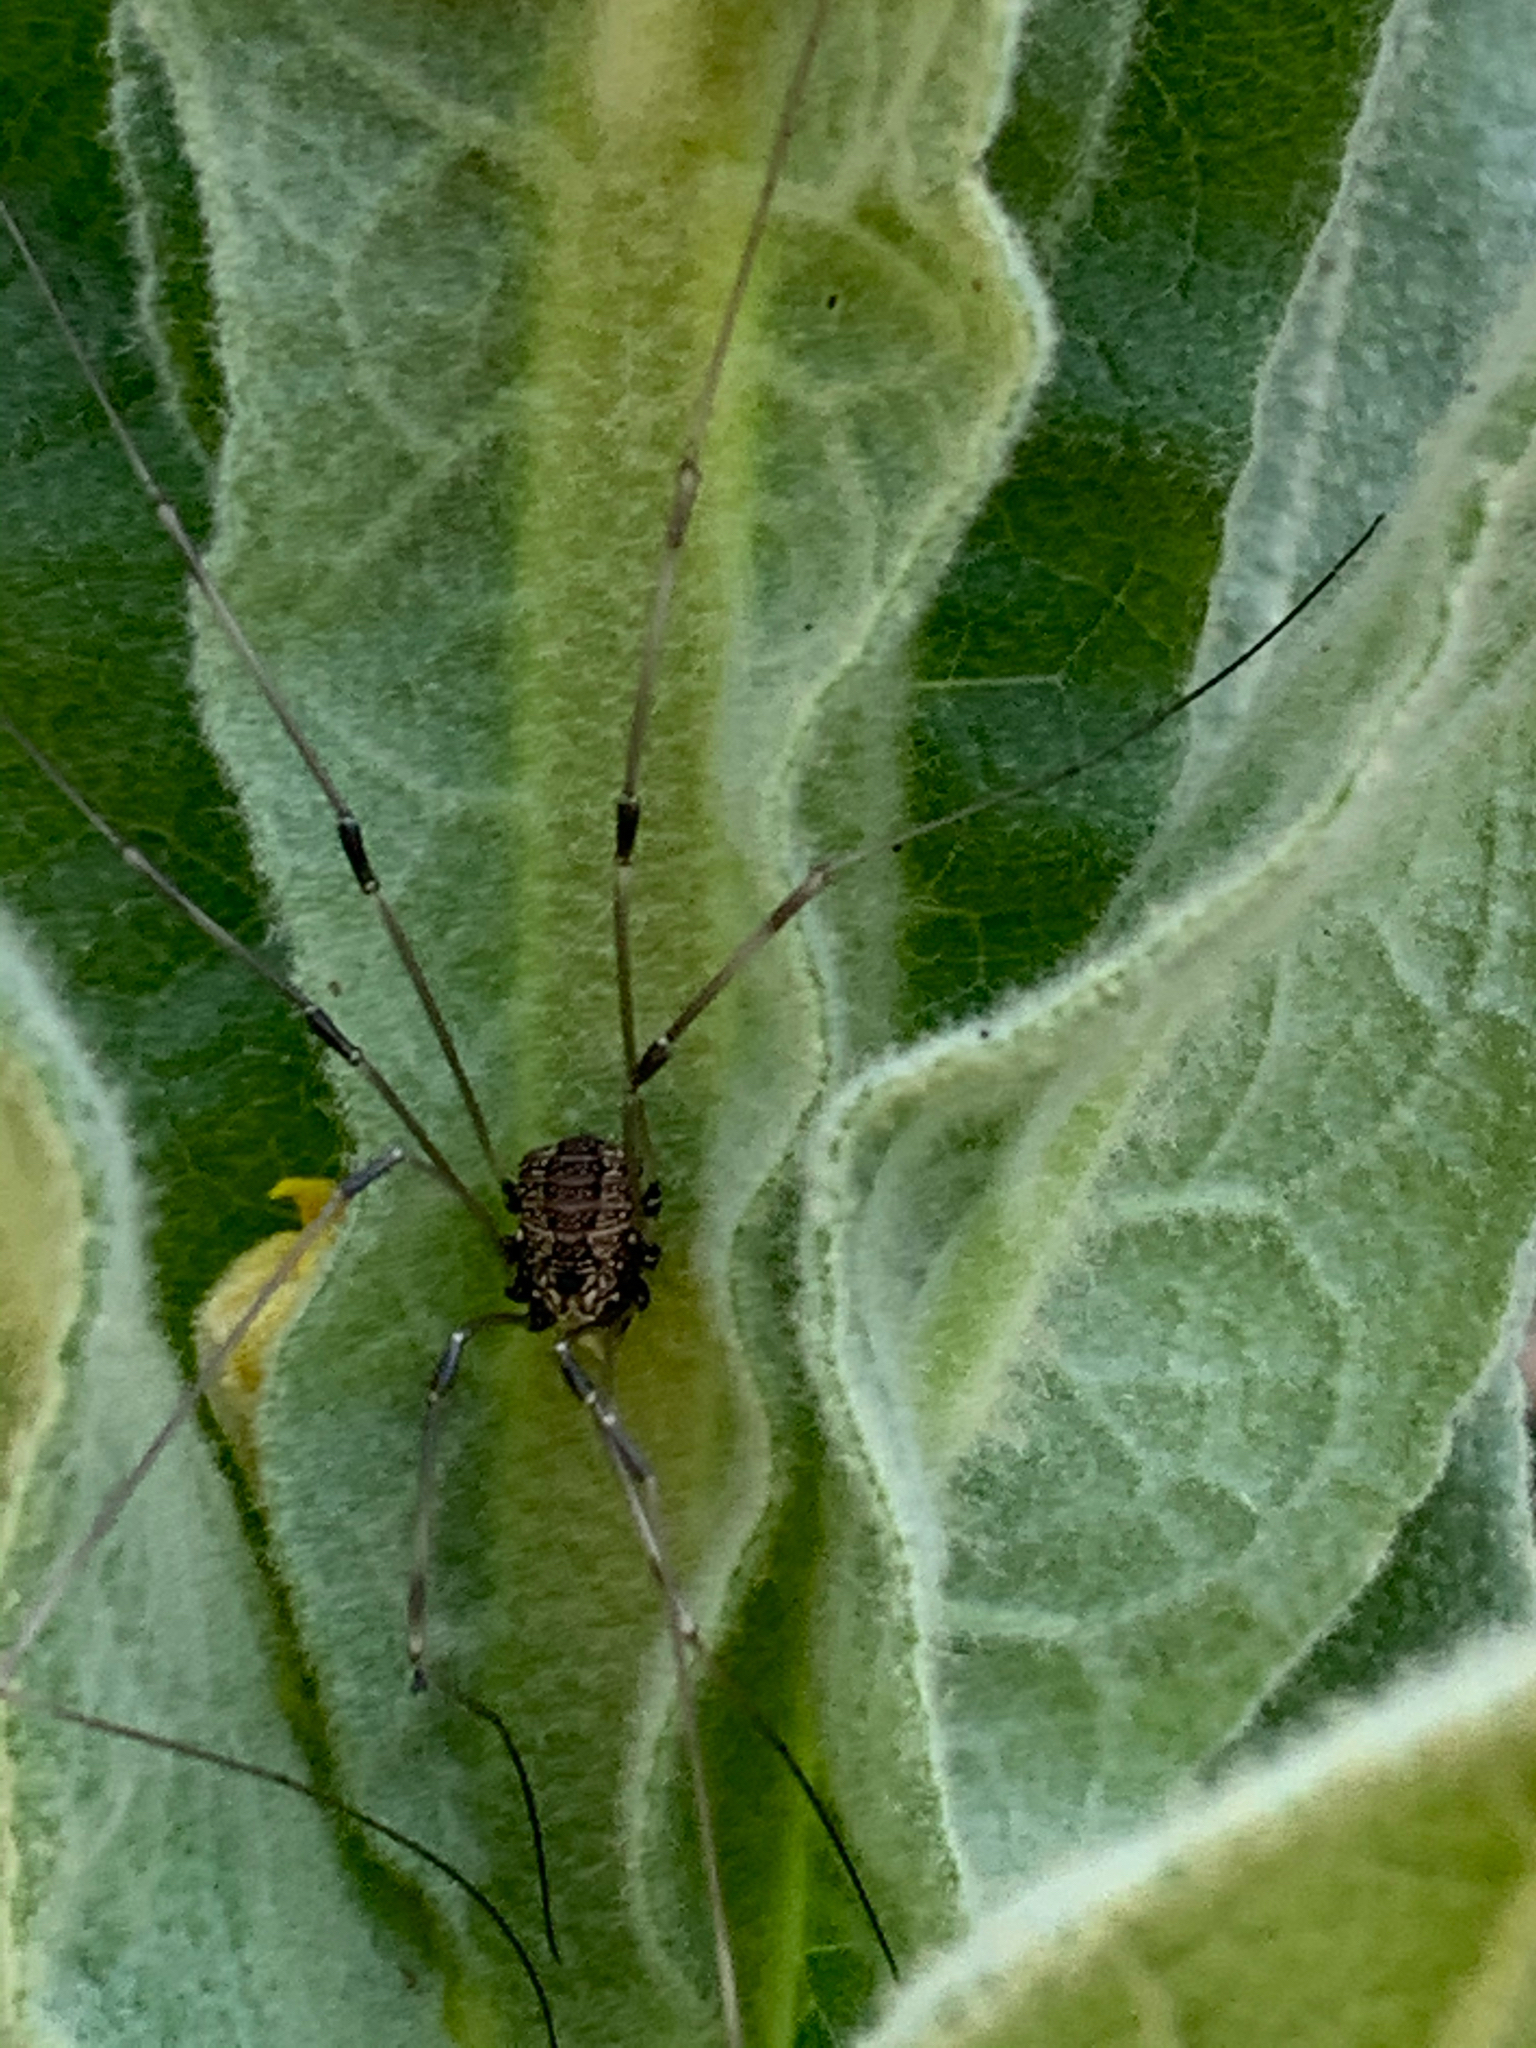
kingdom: Animalia
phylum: Arthropoda
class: Arachnida
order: Opiliones
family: Sclerosomatidae
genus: Leiobunum
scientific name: Leiobunum
